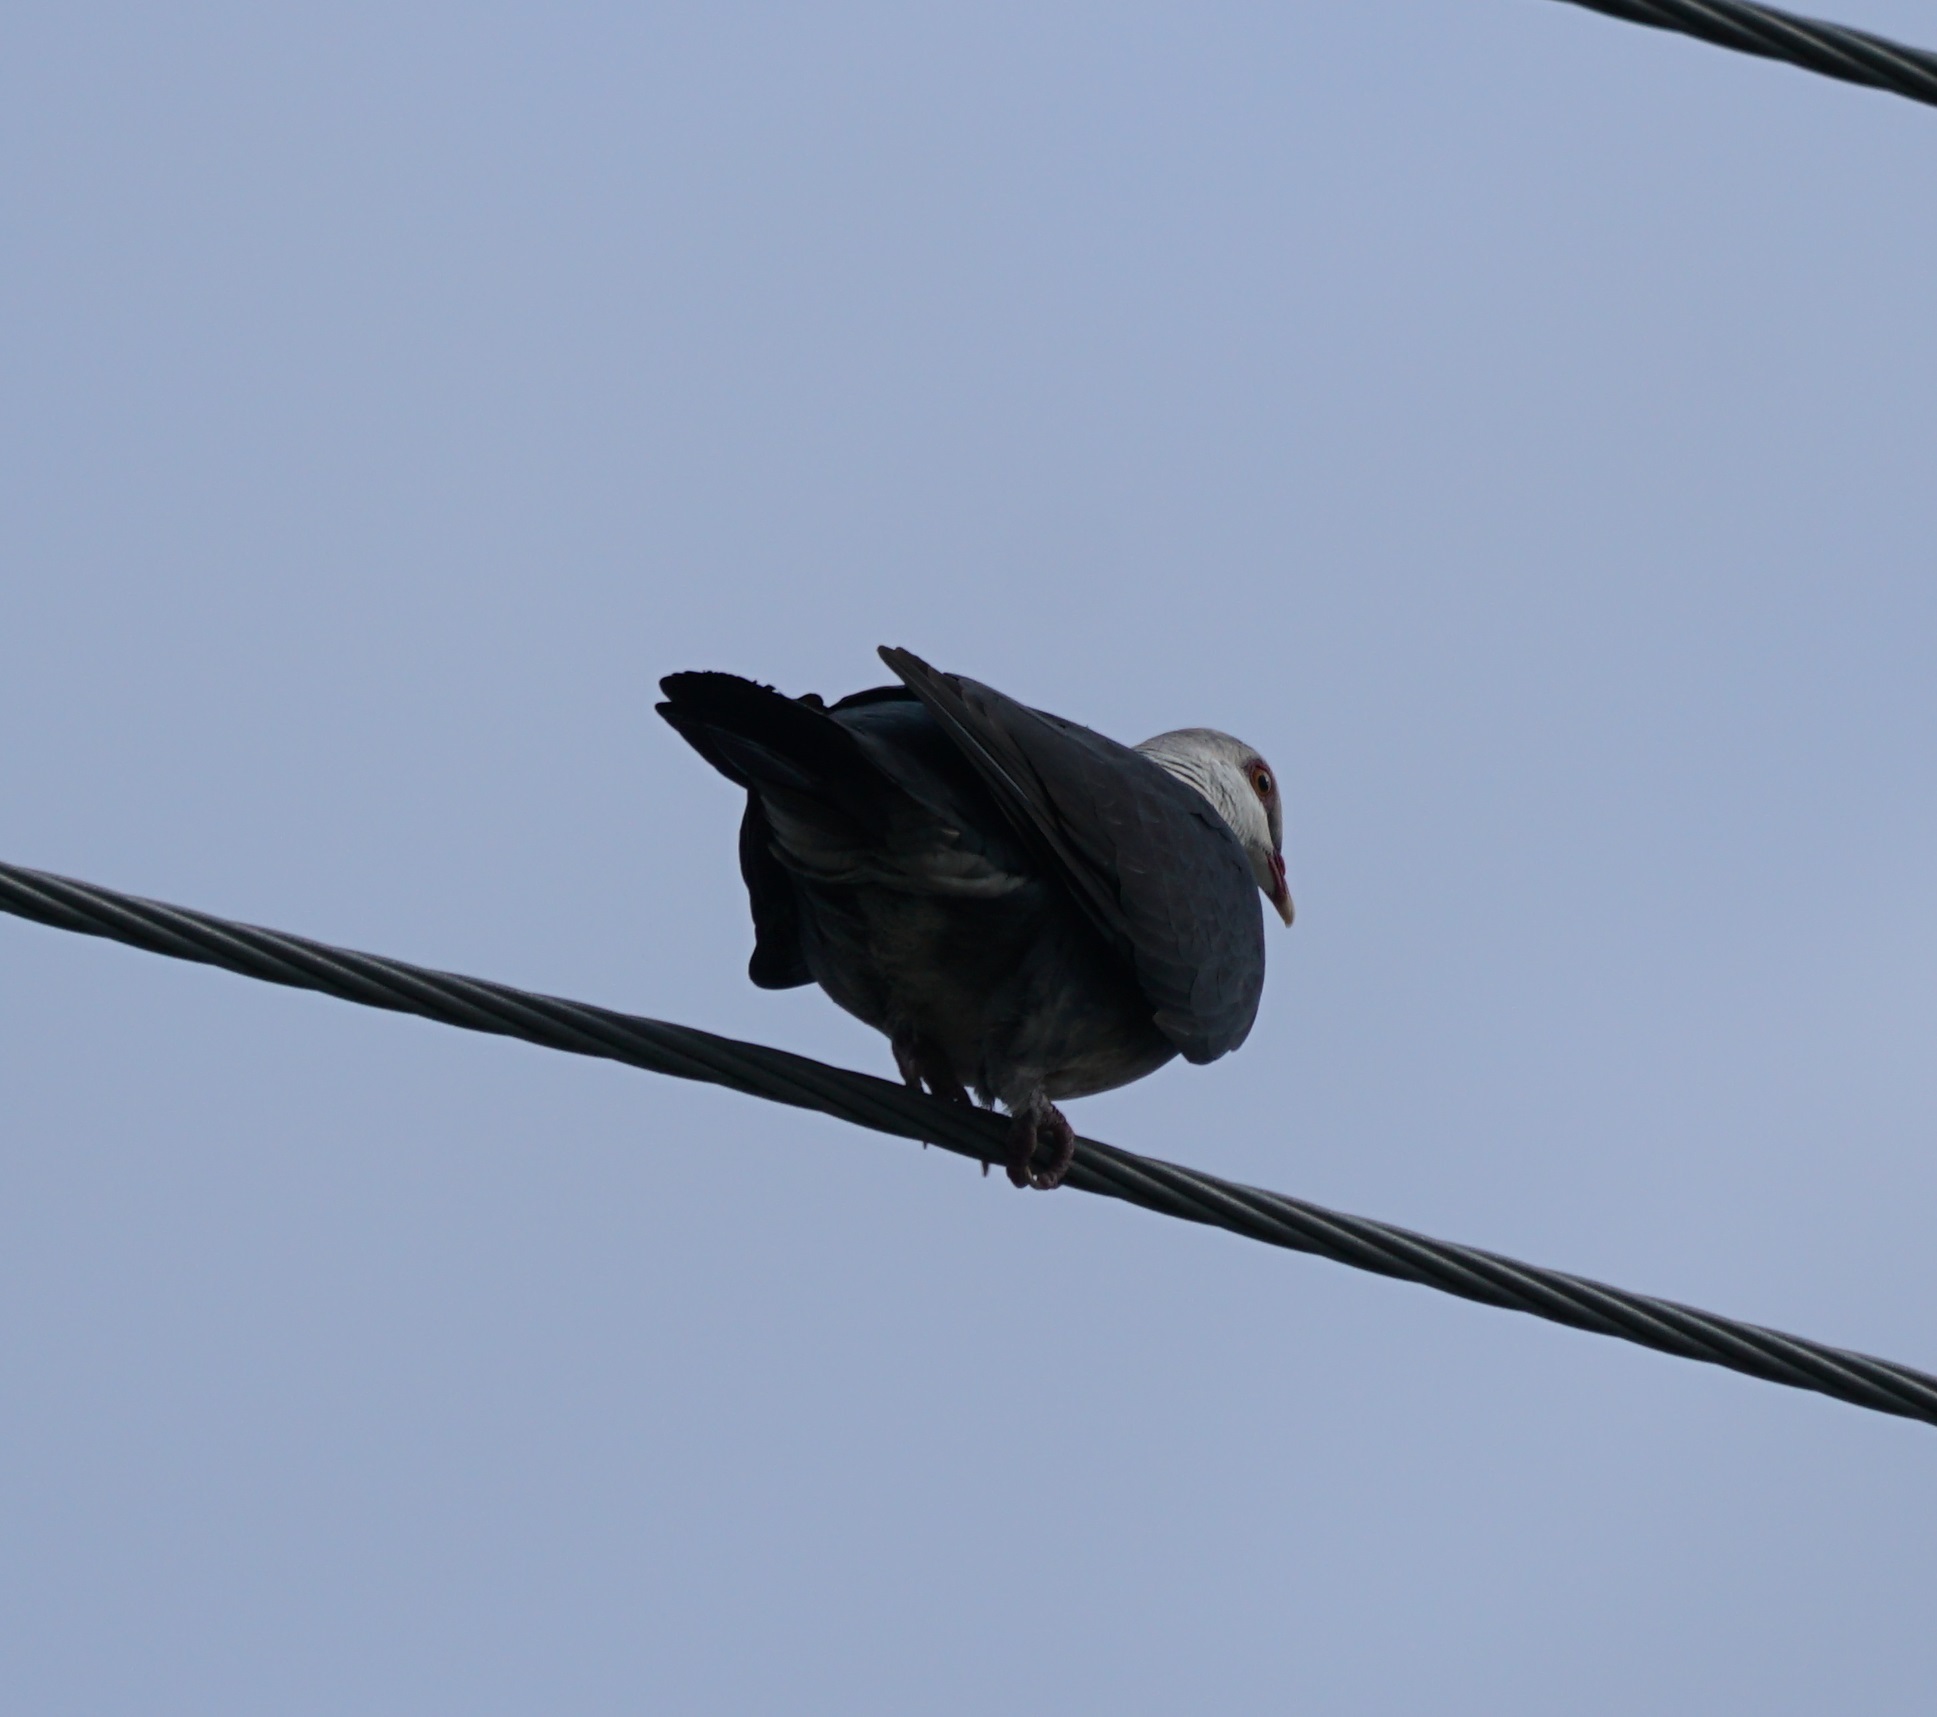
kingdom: Animalia
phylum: Chordata
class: Aves
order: Columbiformes
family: Columbidae
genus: Columba
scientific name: Columba leucomela
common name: White-headed pigeon
